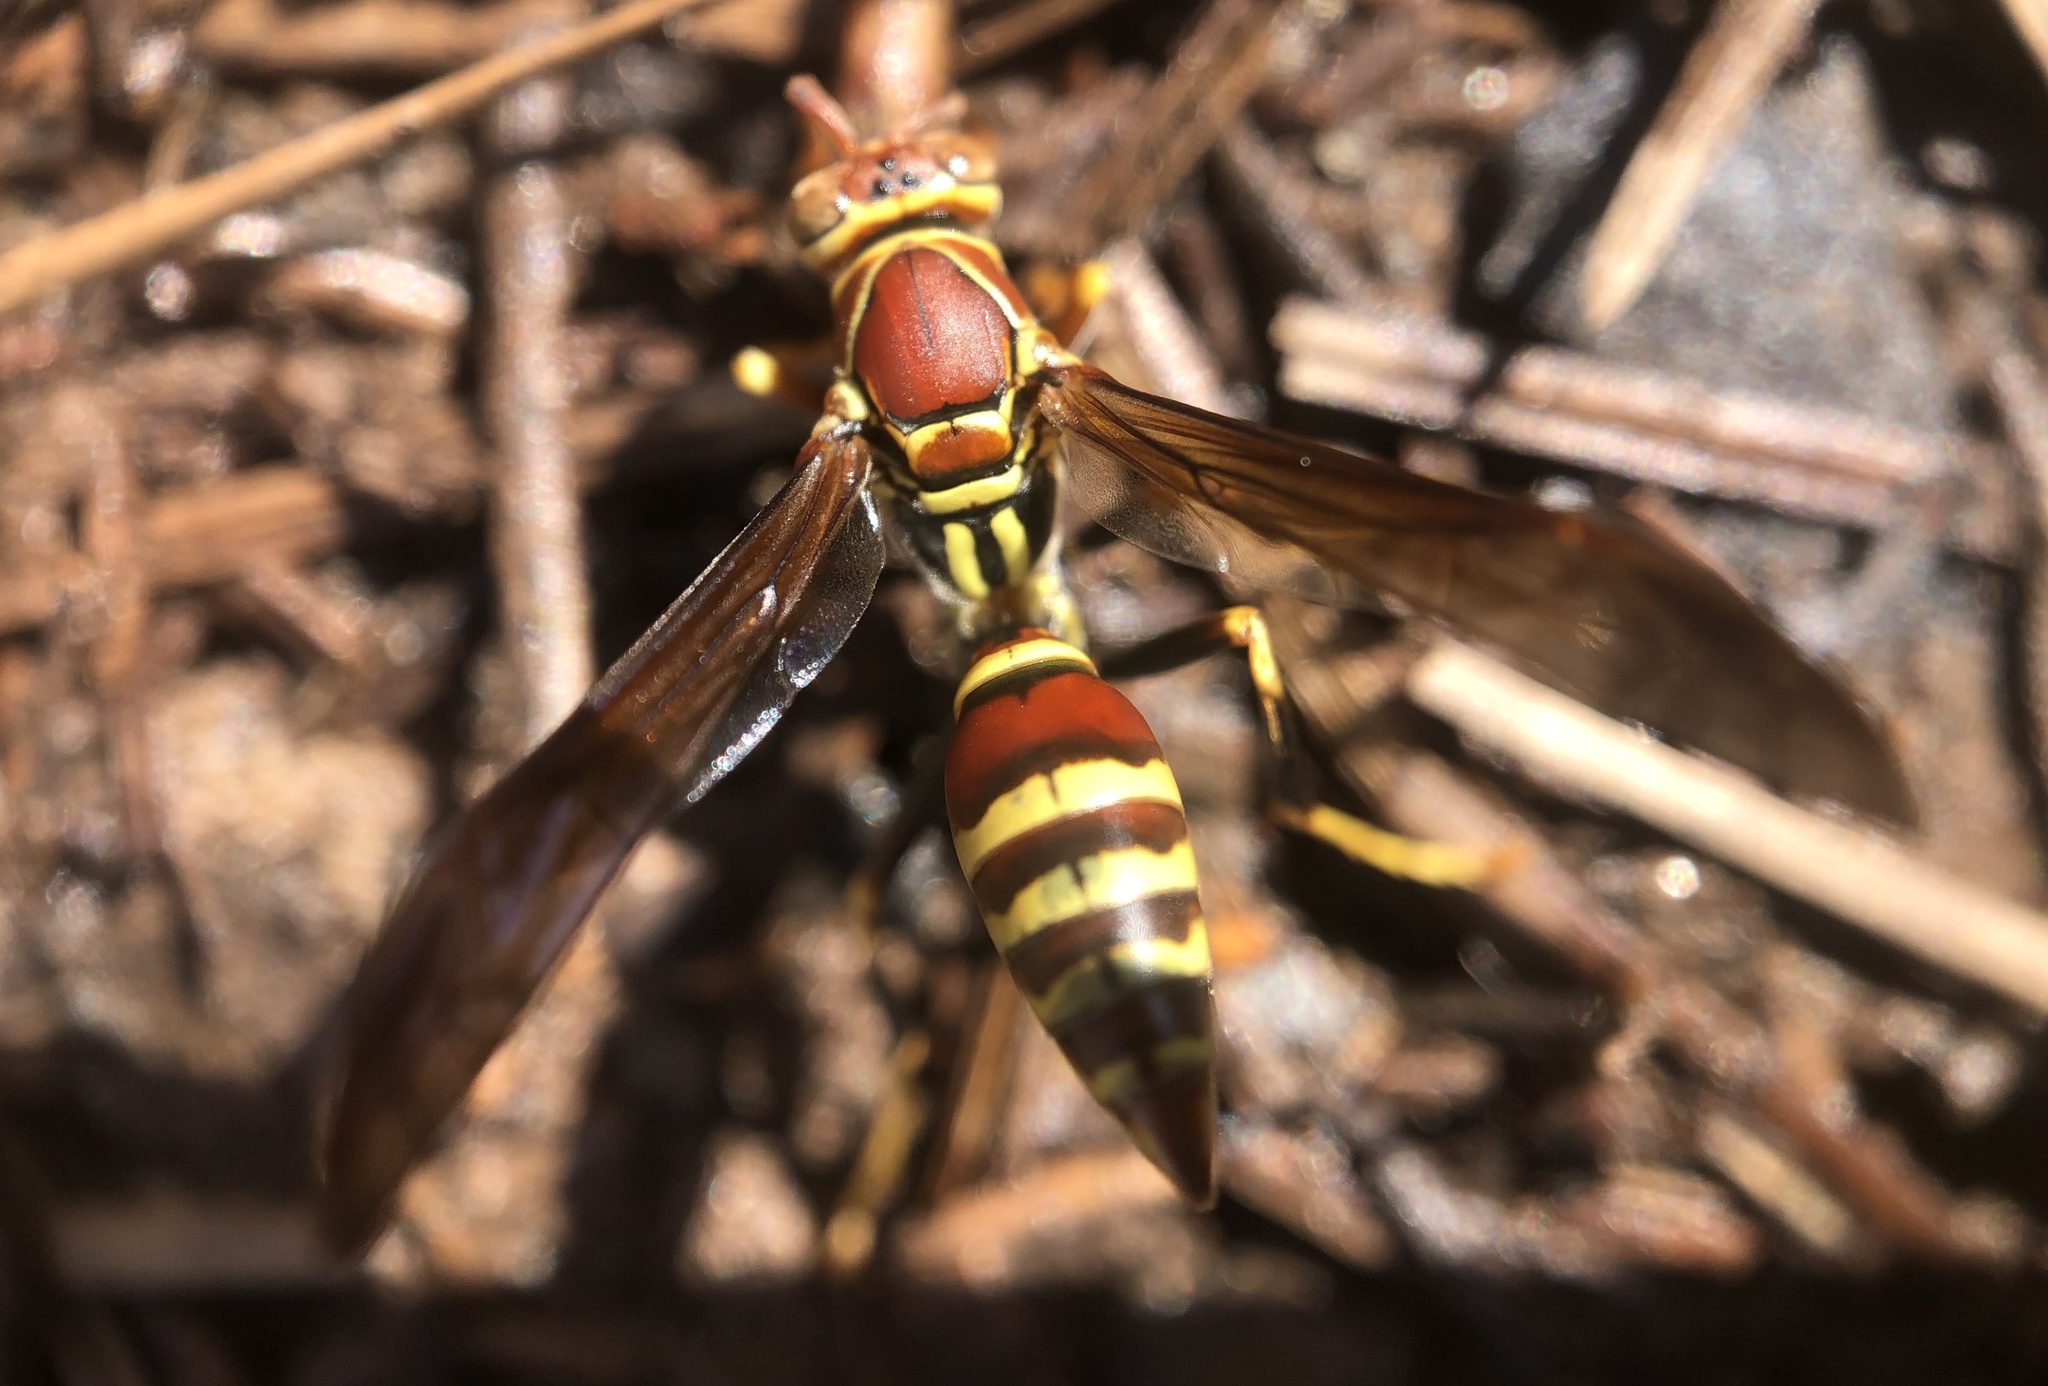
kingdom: Animalia
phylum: Arthropoda
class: Insecta
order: Hymenoptera
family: Eumenidae
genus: Polistes
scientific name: Polistes exclamans
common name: Paper wasp
